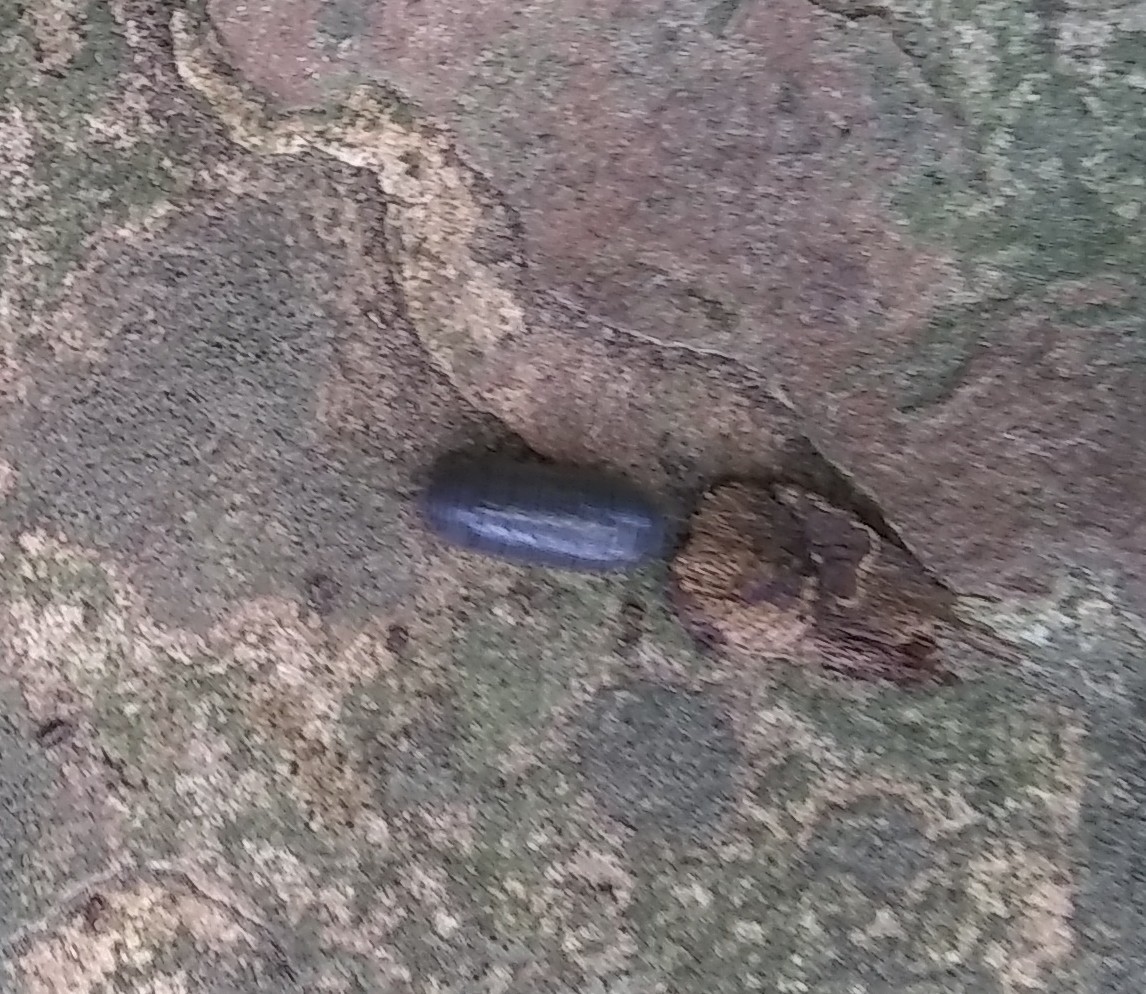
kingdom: Animalia
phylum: Arthropoda
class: Malacostraca
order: Isopoda
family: Armadillidiidae
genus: Armadillidium
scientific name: Armadillidium vulgare
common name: Common pill woodlouse
